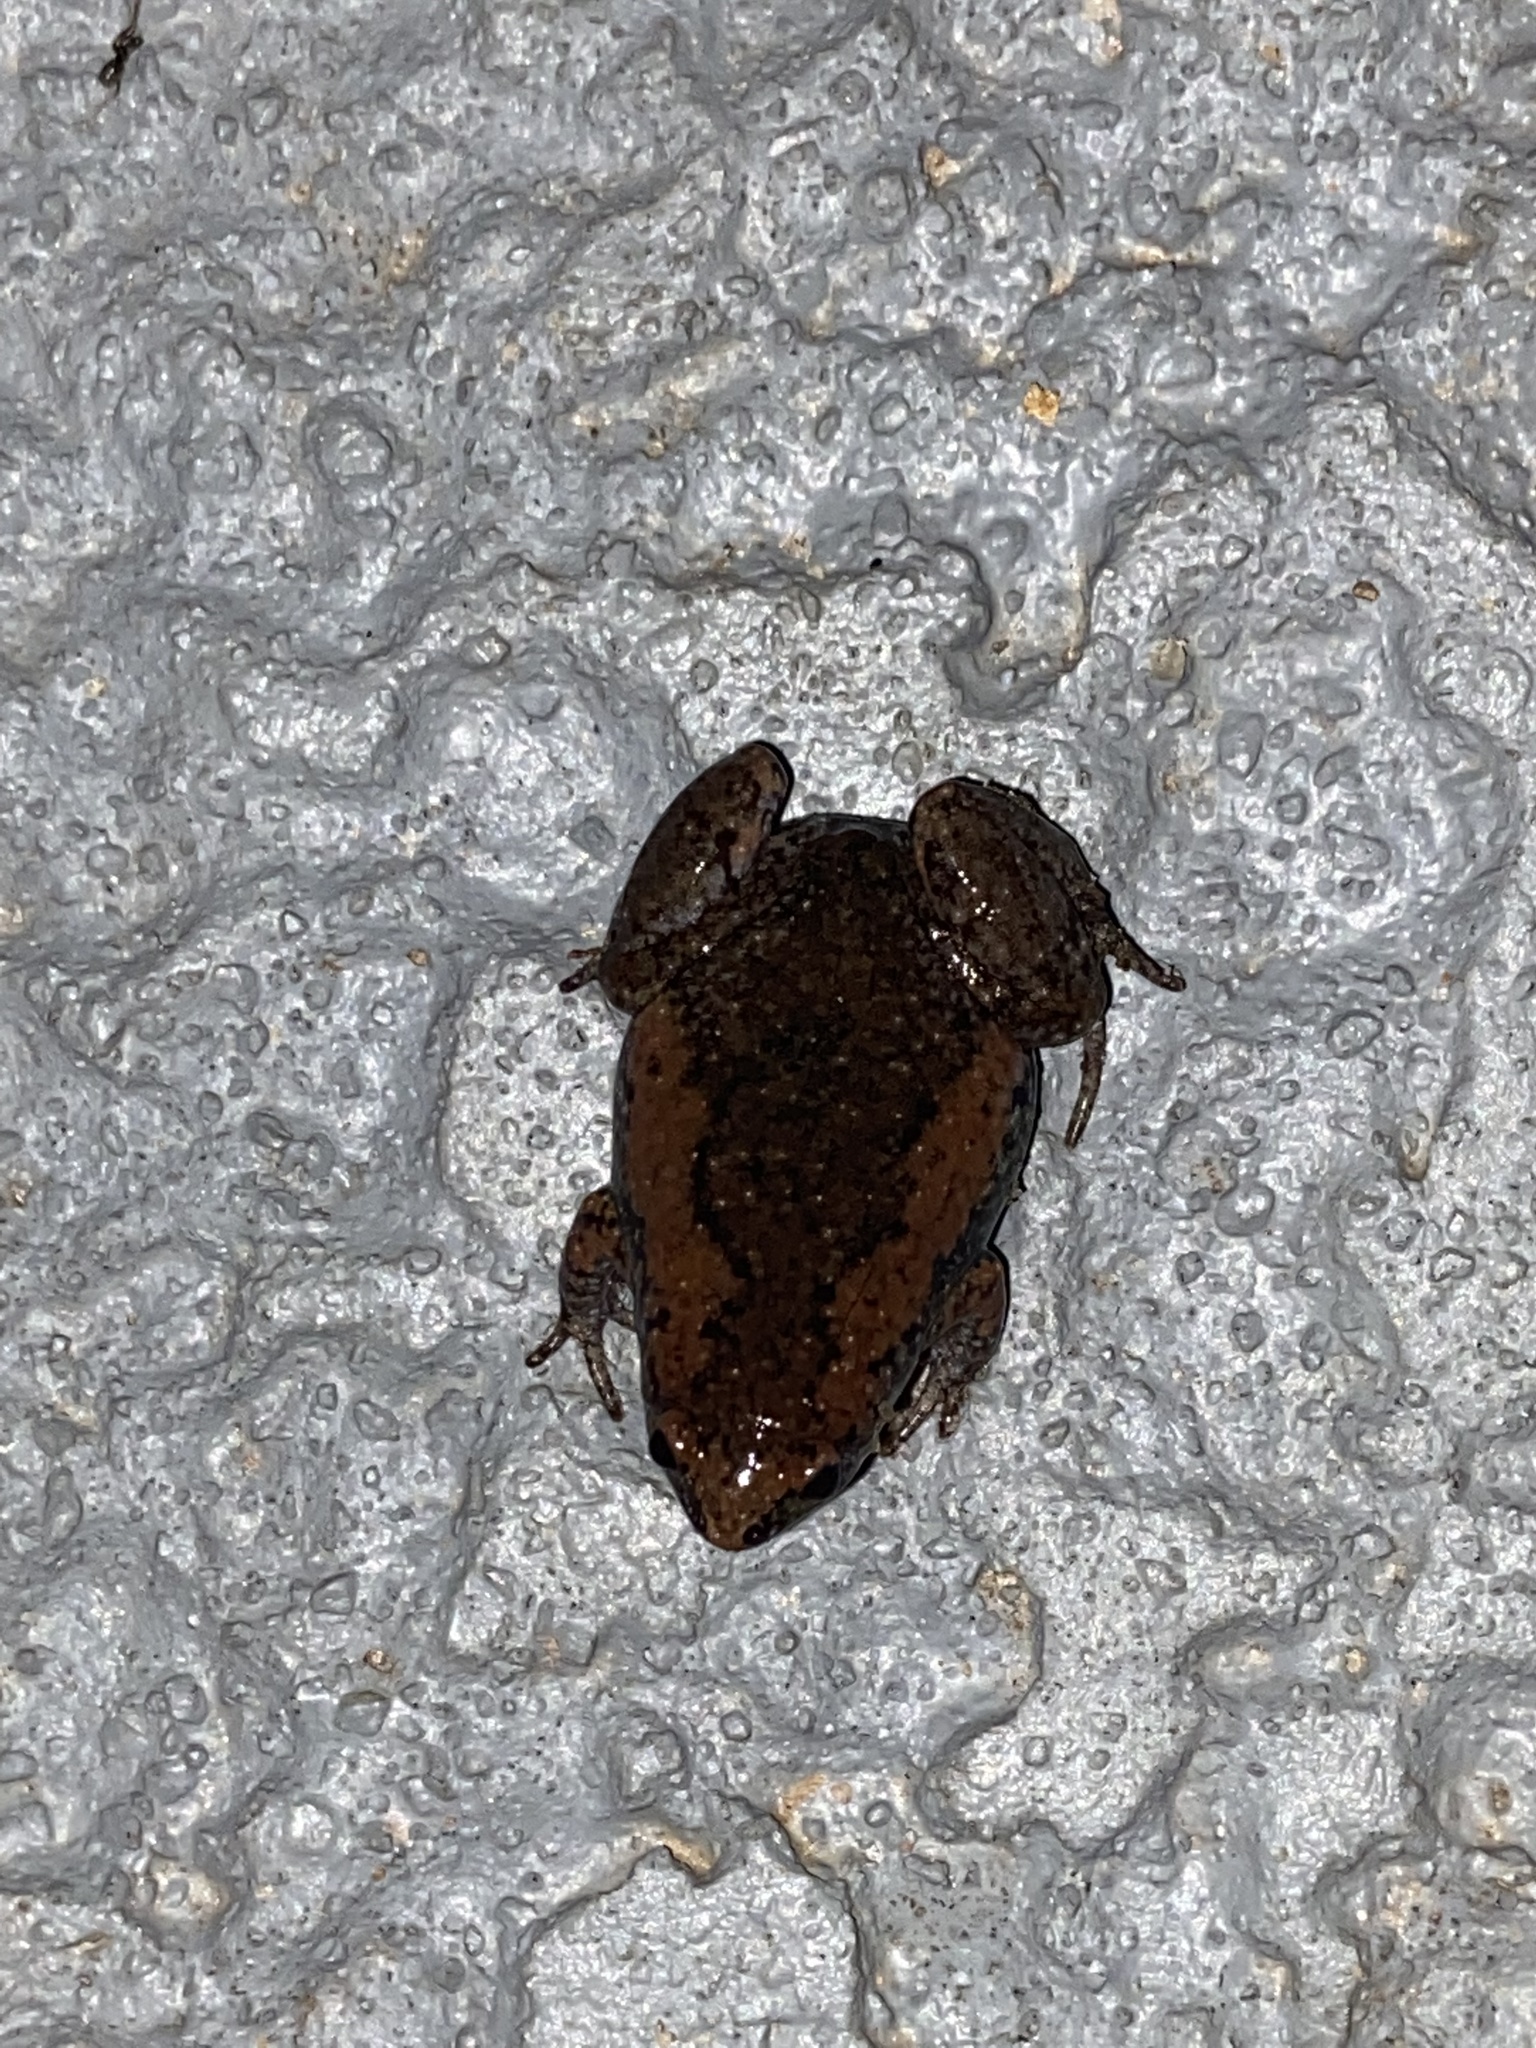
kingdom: Animalia
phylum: Chordata
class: Amphibia
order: Anura
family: Microhylidae
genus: Gastrophryne
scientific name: Gastrophryne carolinensis
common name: Eastern narrowmouth toad
